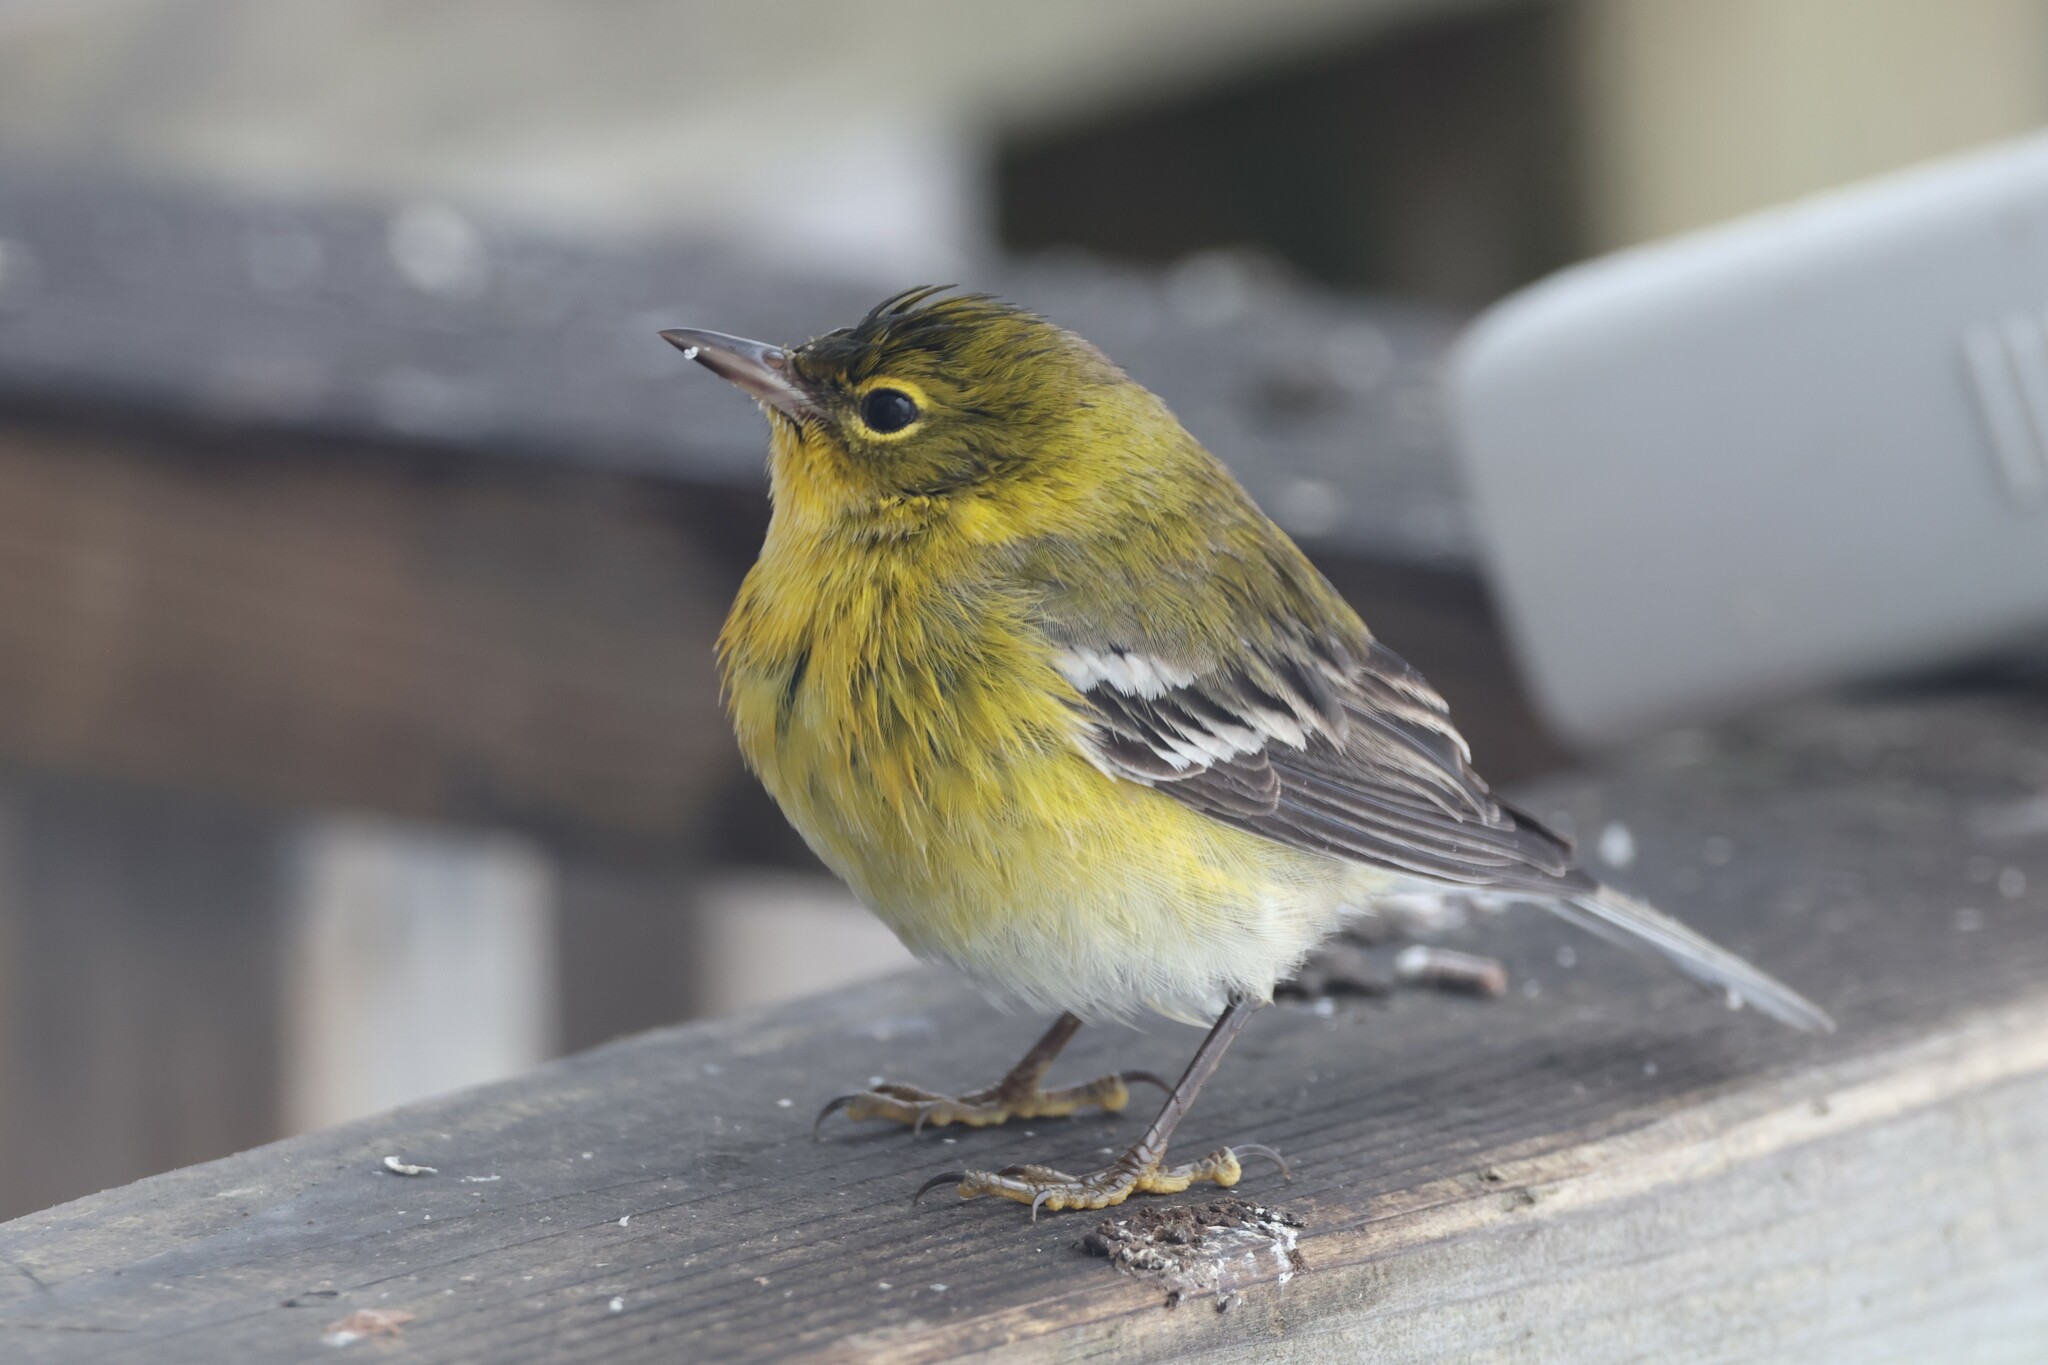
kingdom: Animalia
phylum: Chordata
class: Aves
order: Passeriformes
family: Parulidae
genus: Setophaga
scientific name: Setophaga pinus
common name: Pine warbler
